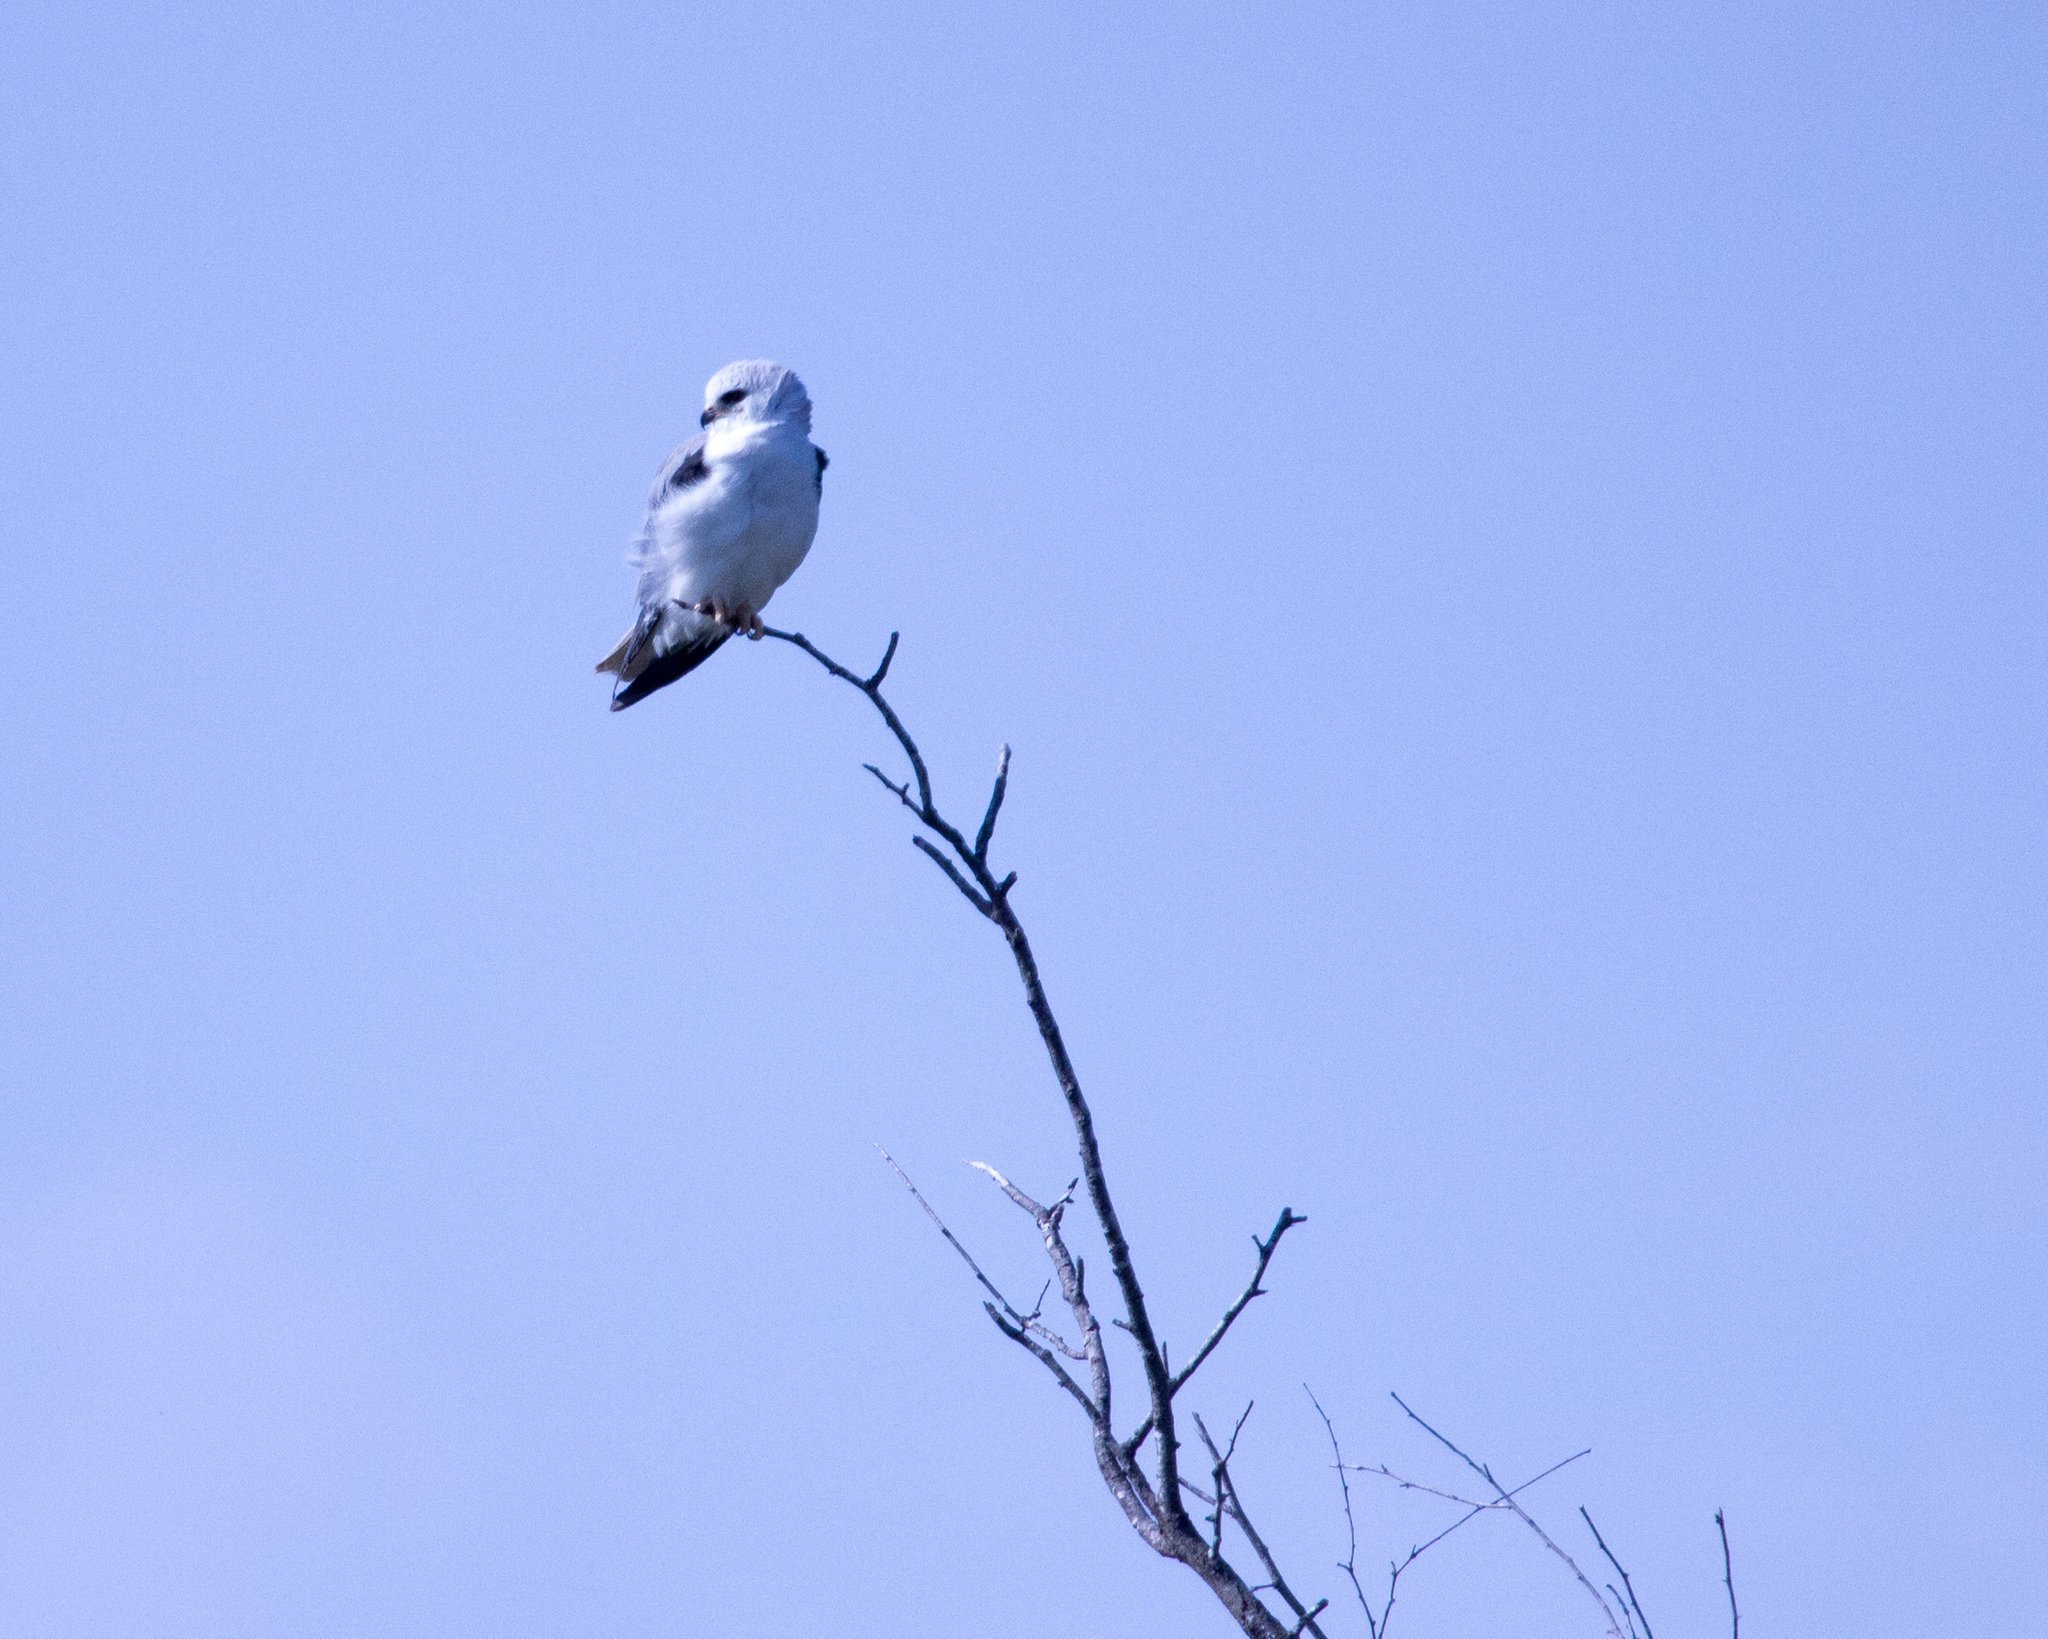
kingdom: Animalia
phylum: Chordata
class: Aves
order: Accipitriformes
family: Accipitridae
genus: Elanus
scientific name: Elanus leucurus
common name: White-tailed kite
